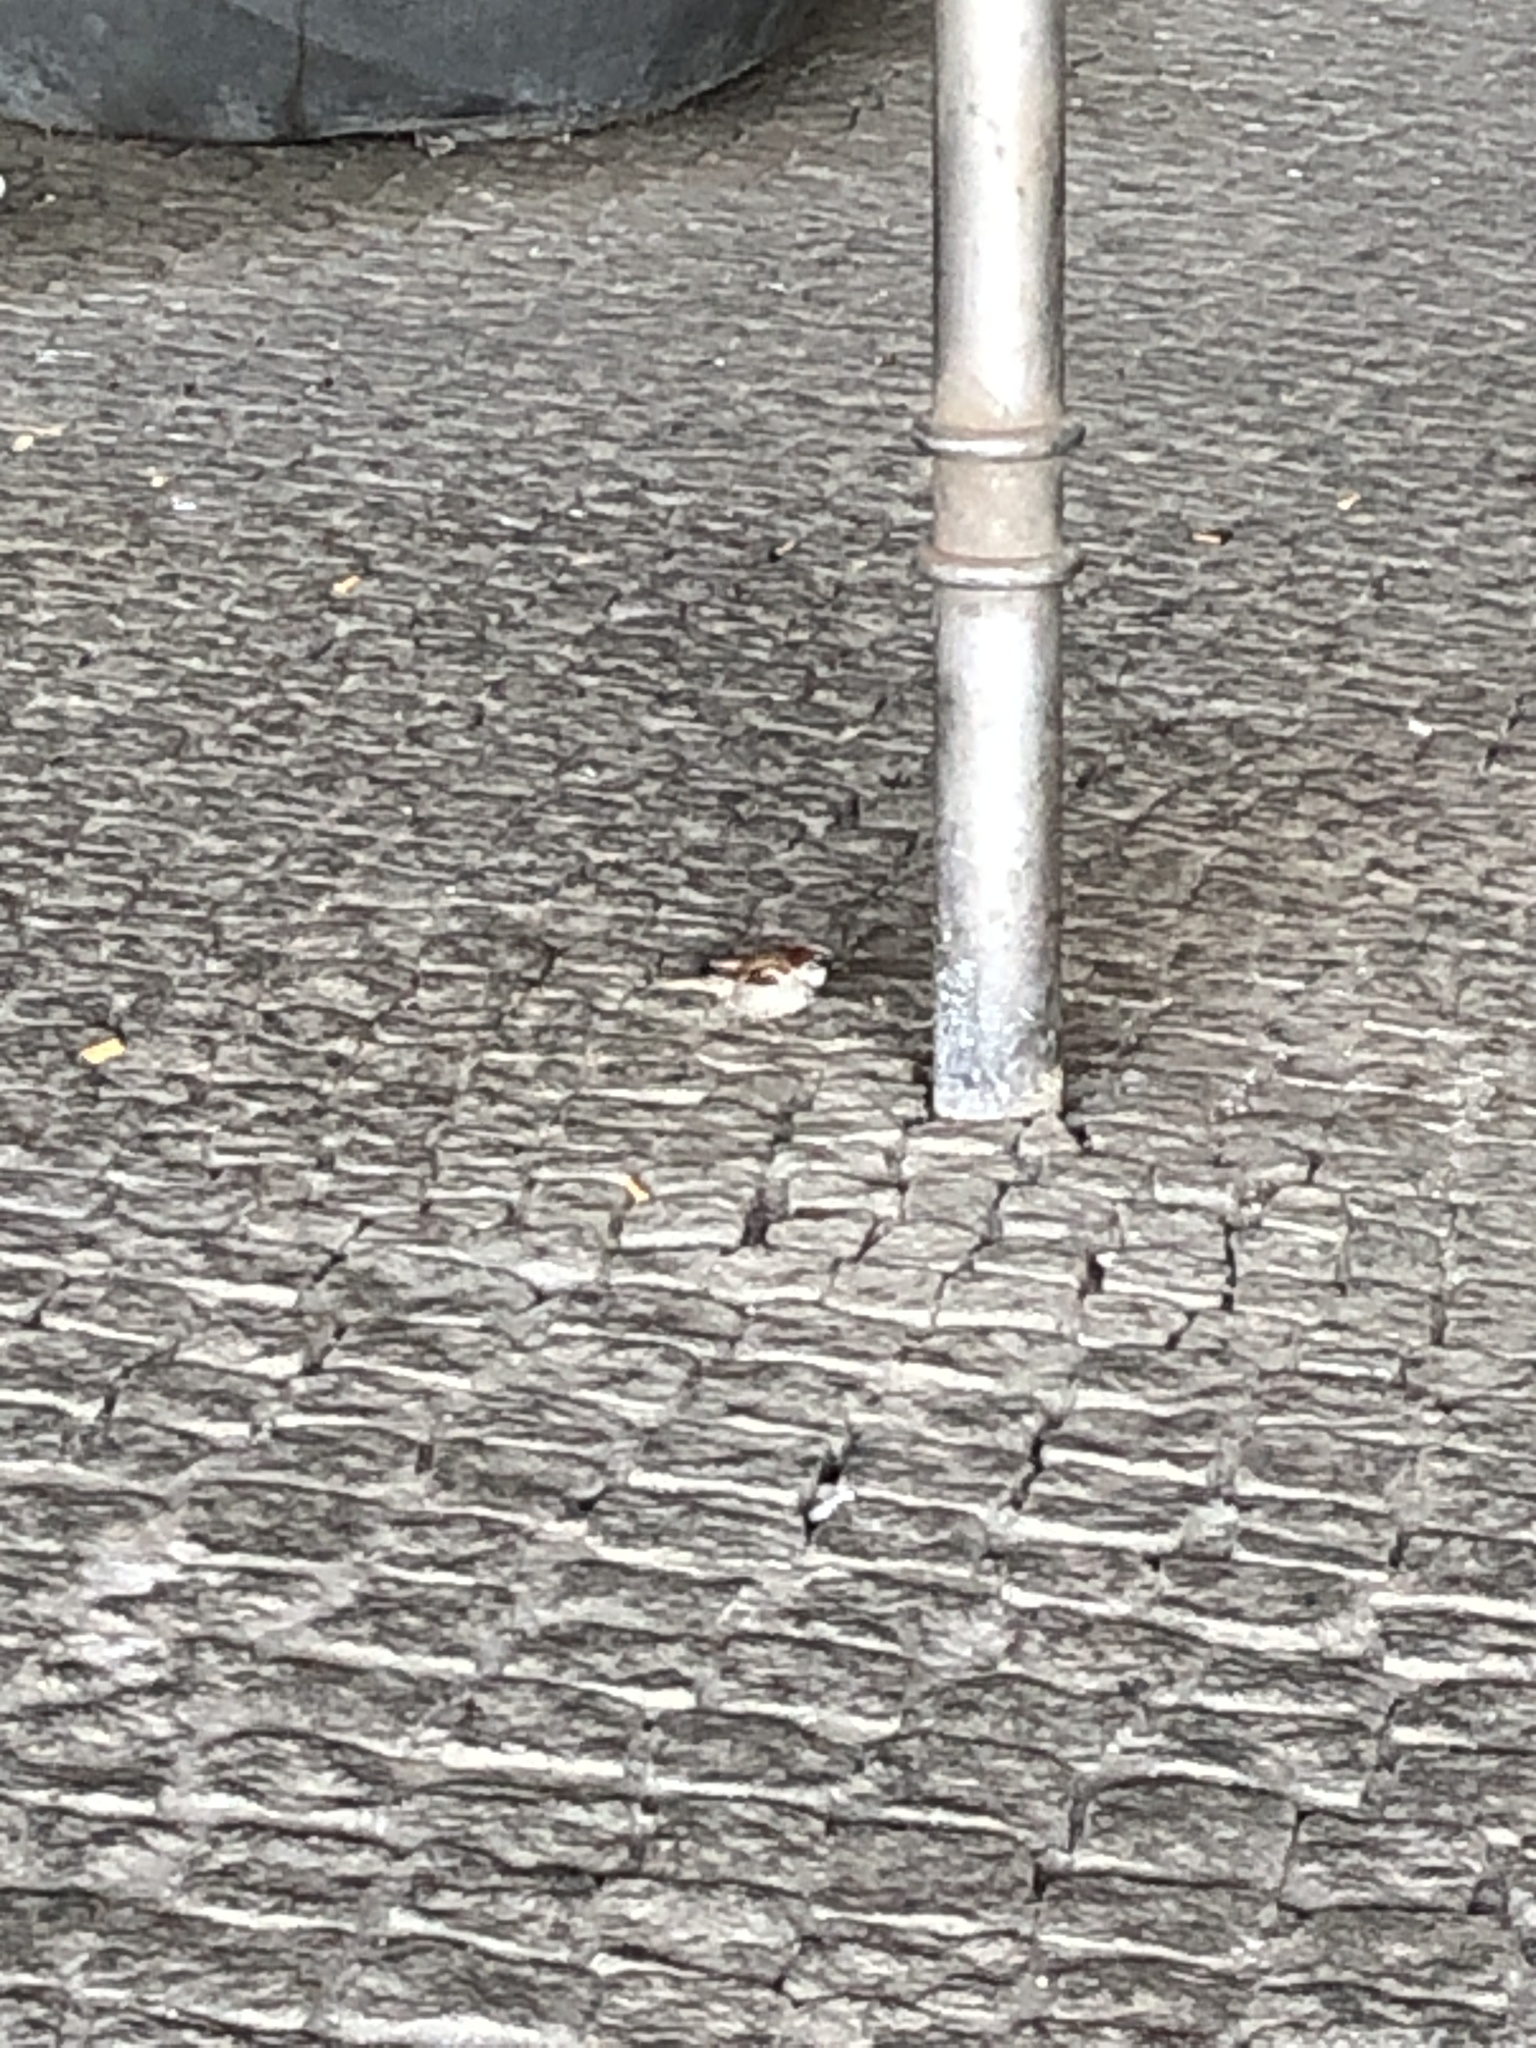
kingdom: Animalia
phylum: Chordata
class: Aves
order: Passeriformes
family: Passeridae
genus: Passer
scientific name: Passer domesticus
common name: House sparrow
